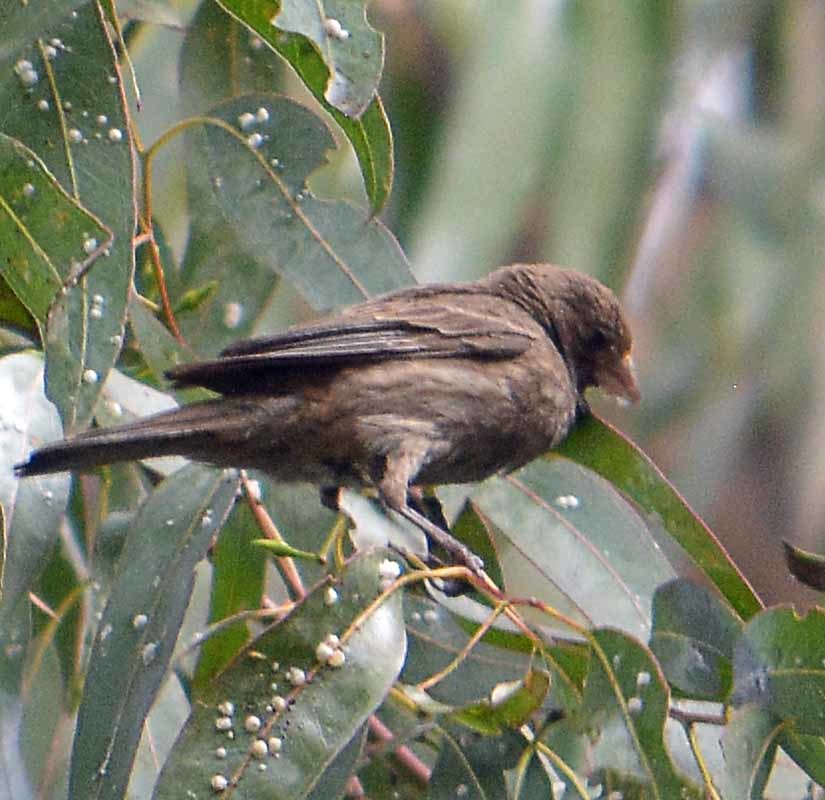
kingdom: Animalia
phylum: Chordata
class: Aves
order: Passeriformes
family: Fringillidae
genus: Haemorhous
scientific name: Haemorhous mexicanus
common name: House finch
